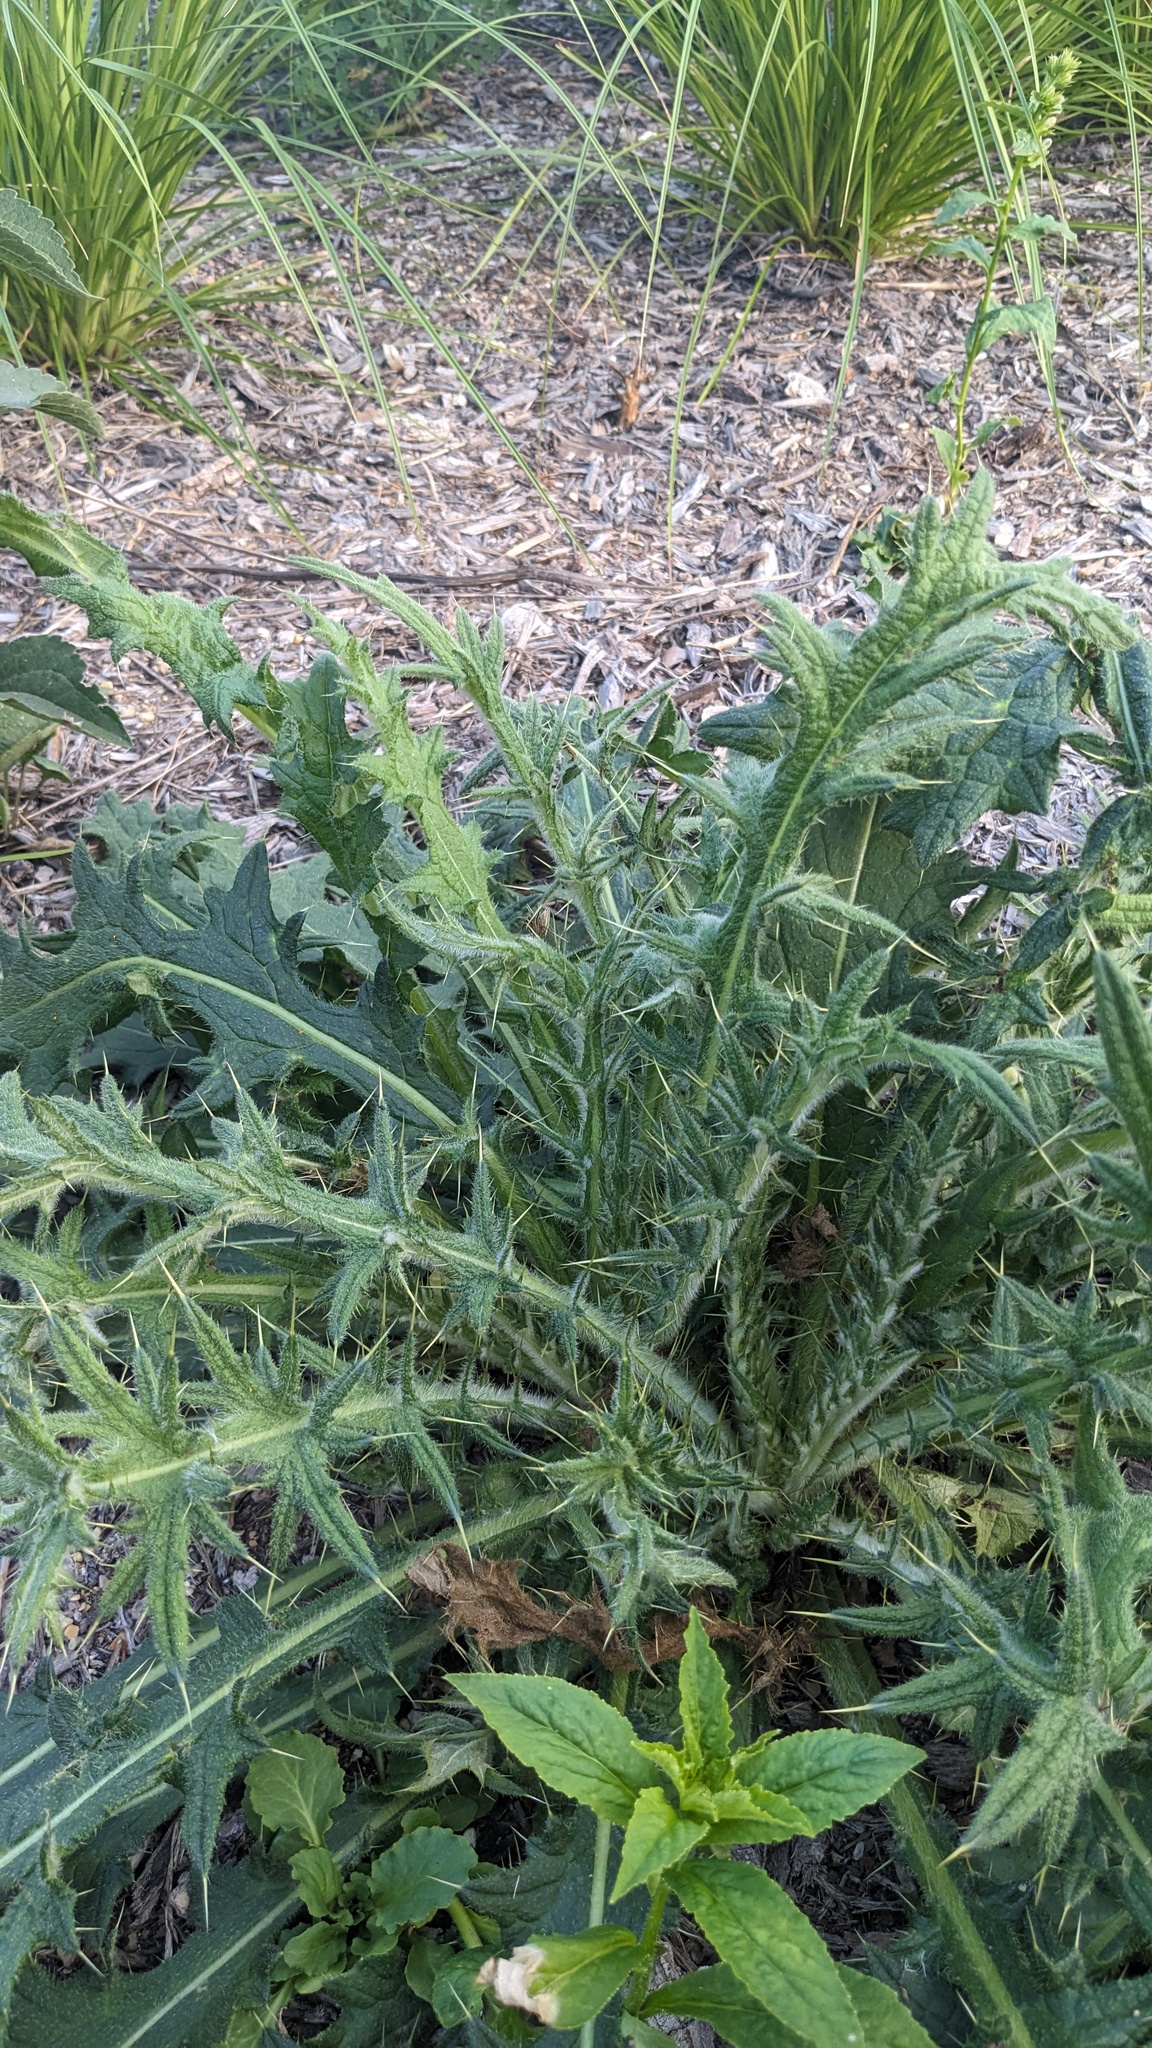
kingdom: Plantae
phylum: Tracheophyta
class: Magnoliopsida
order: Asterales
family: Asteraceae
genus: Cirsium
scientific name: Cirsium vulgare
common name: Bull thistle
